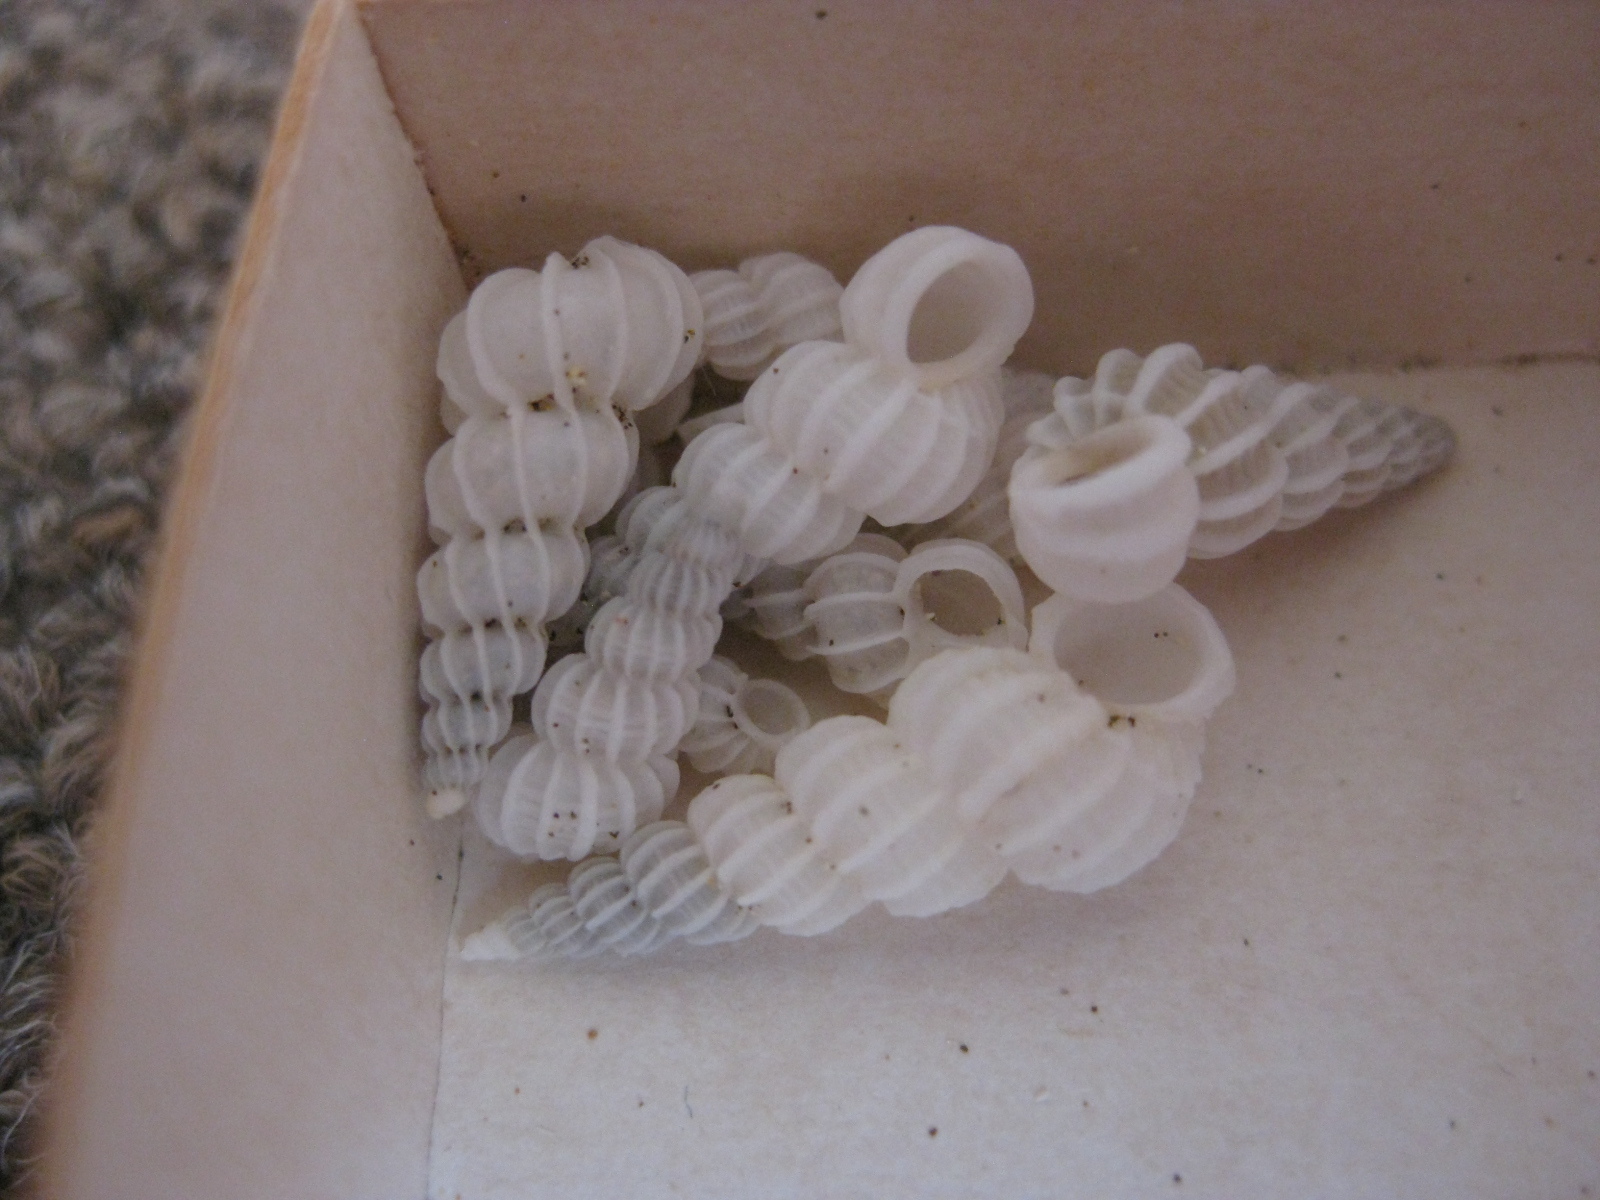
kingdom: Animalia
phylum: Mollusca
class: Gastropoda
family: Epitoniidae
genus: Epitonium
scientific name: Epitonium minorum
